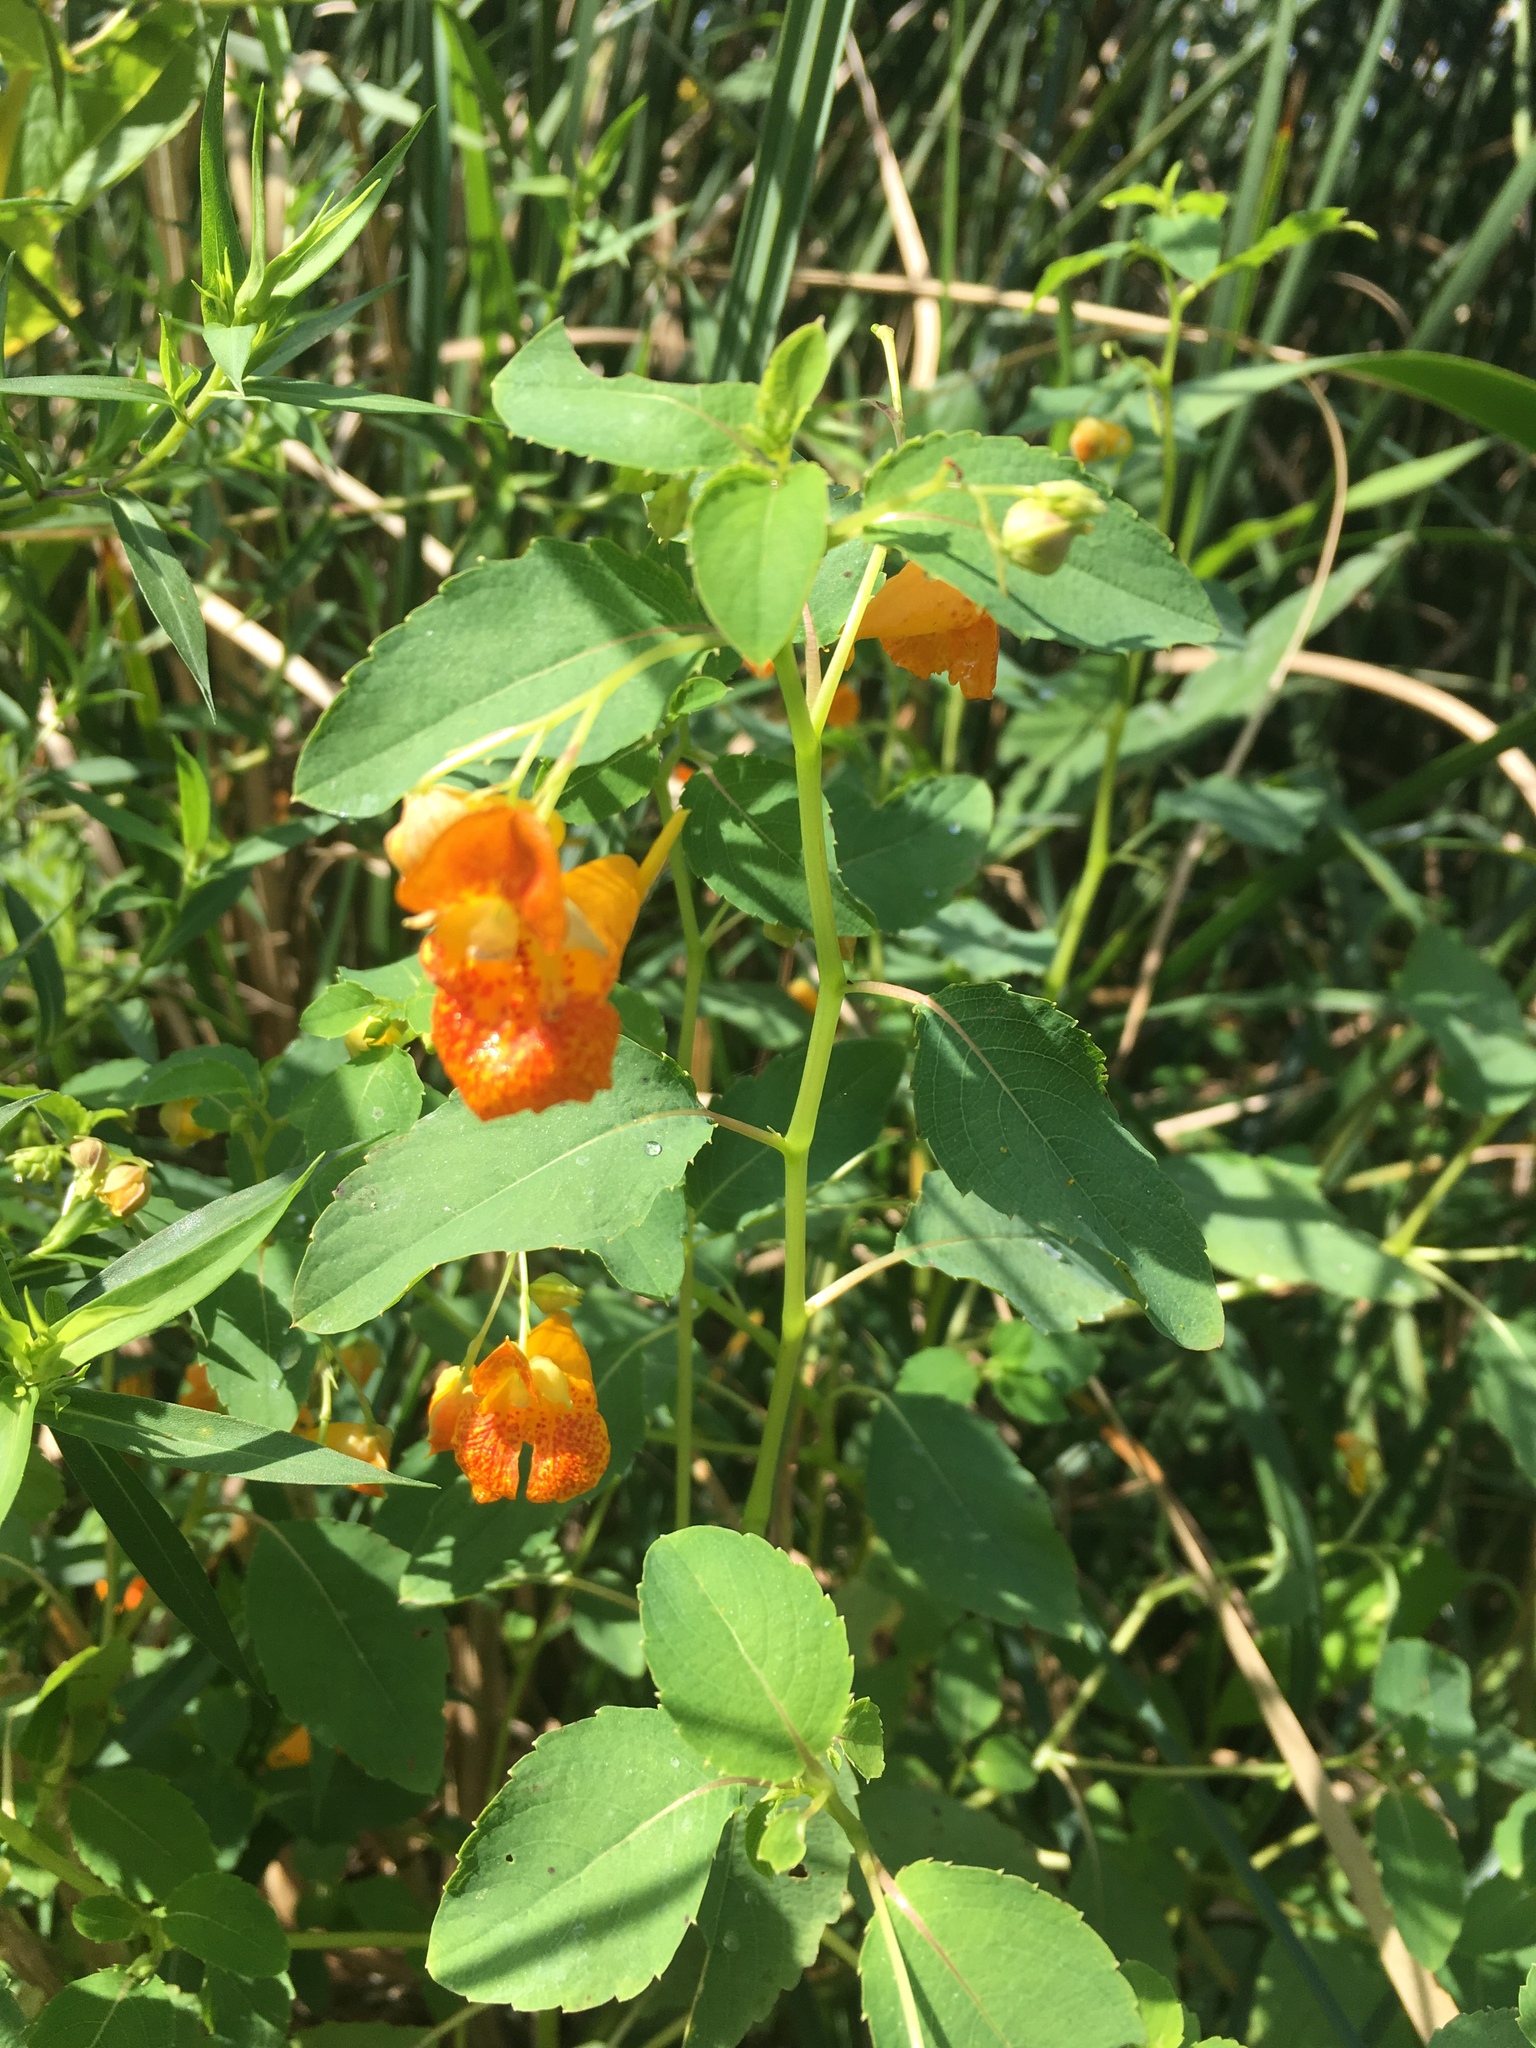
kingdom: Plantae
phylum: Tracheophyta
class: Magnoliopsida
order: Ericales
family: Balsaminaceae
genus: Impatiens
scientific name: Impatiens capensis
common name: Orange balsam
